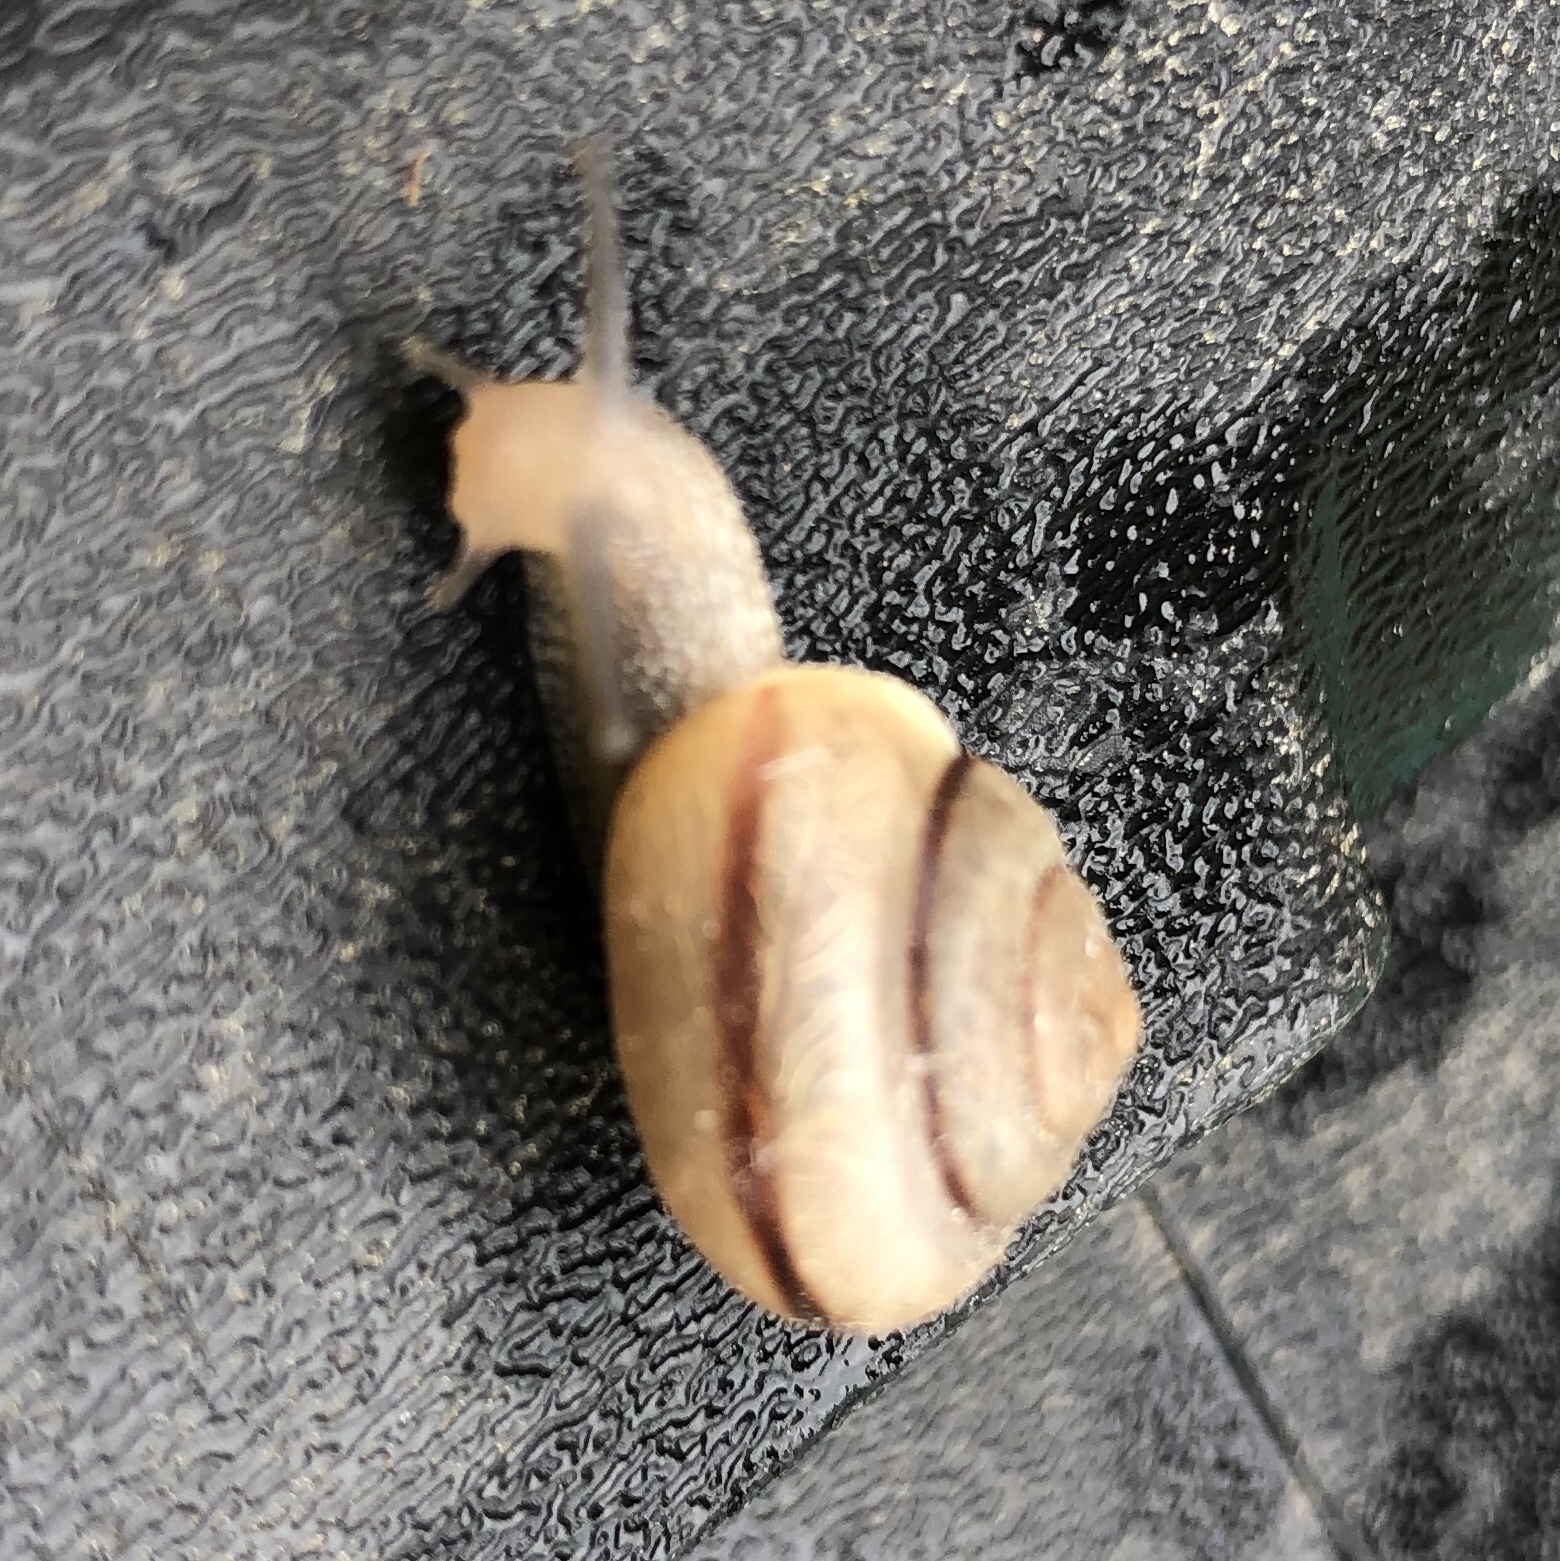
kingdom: Animalia
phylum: Mollusca
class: Gastropoda
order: Stylommatophora
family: Camaenidae
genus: Bradybaena
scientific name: Bradybaena similaris
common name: Asian trampsnail
